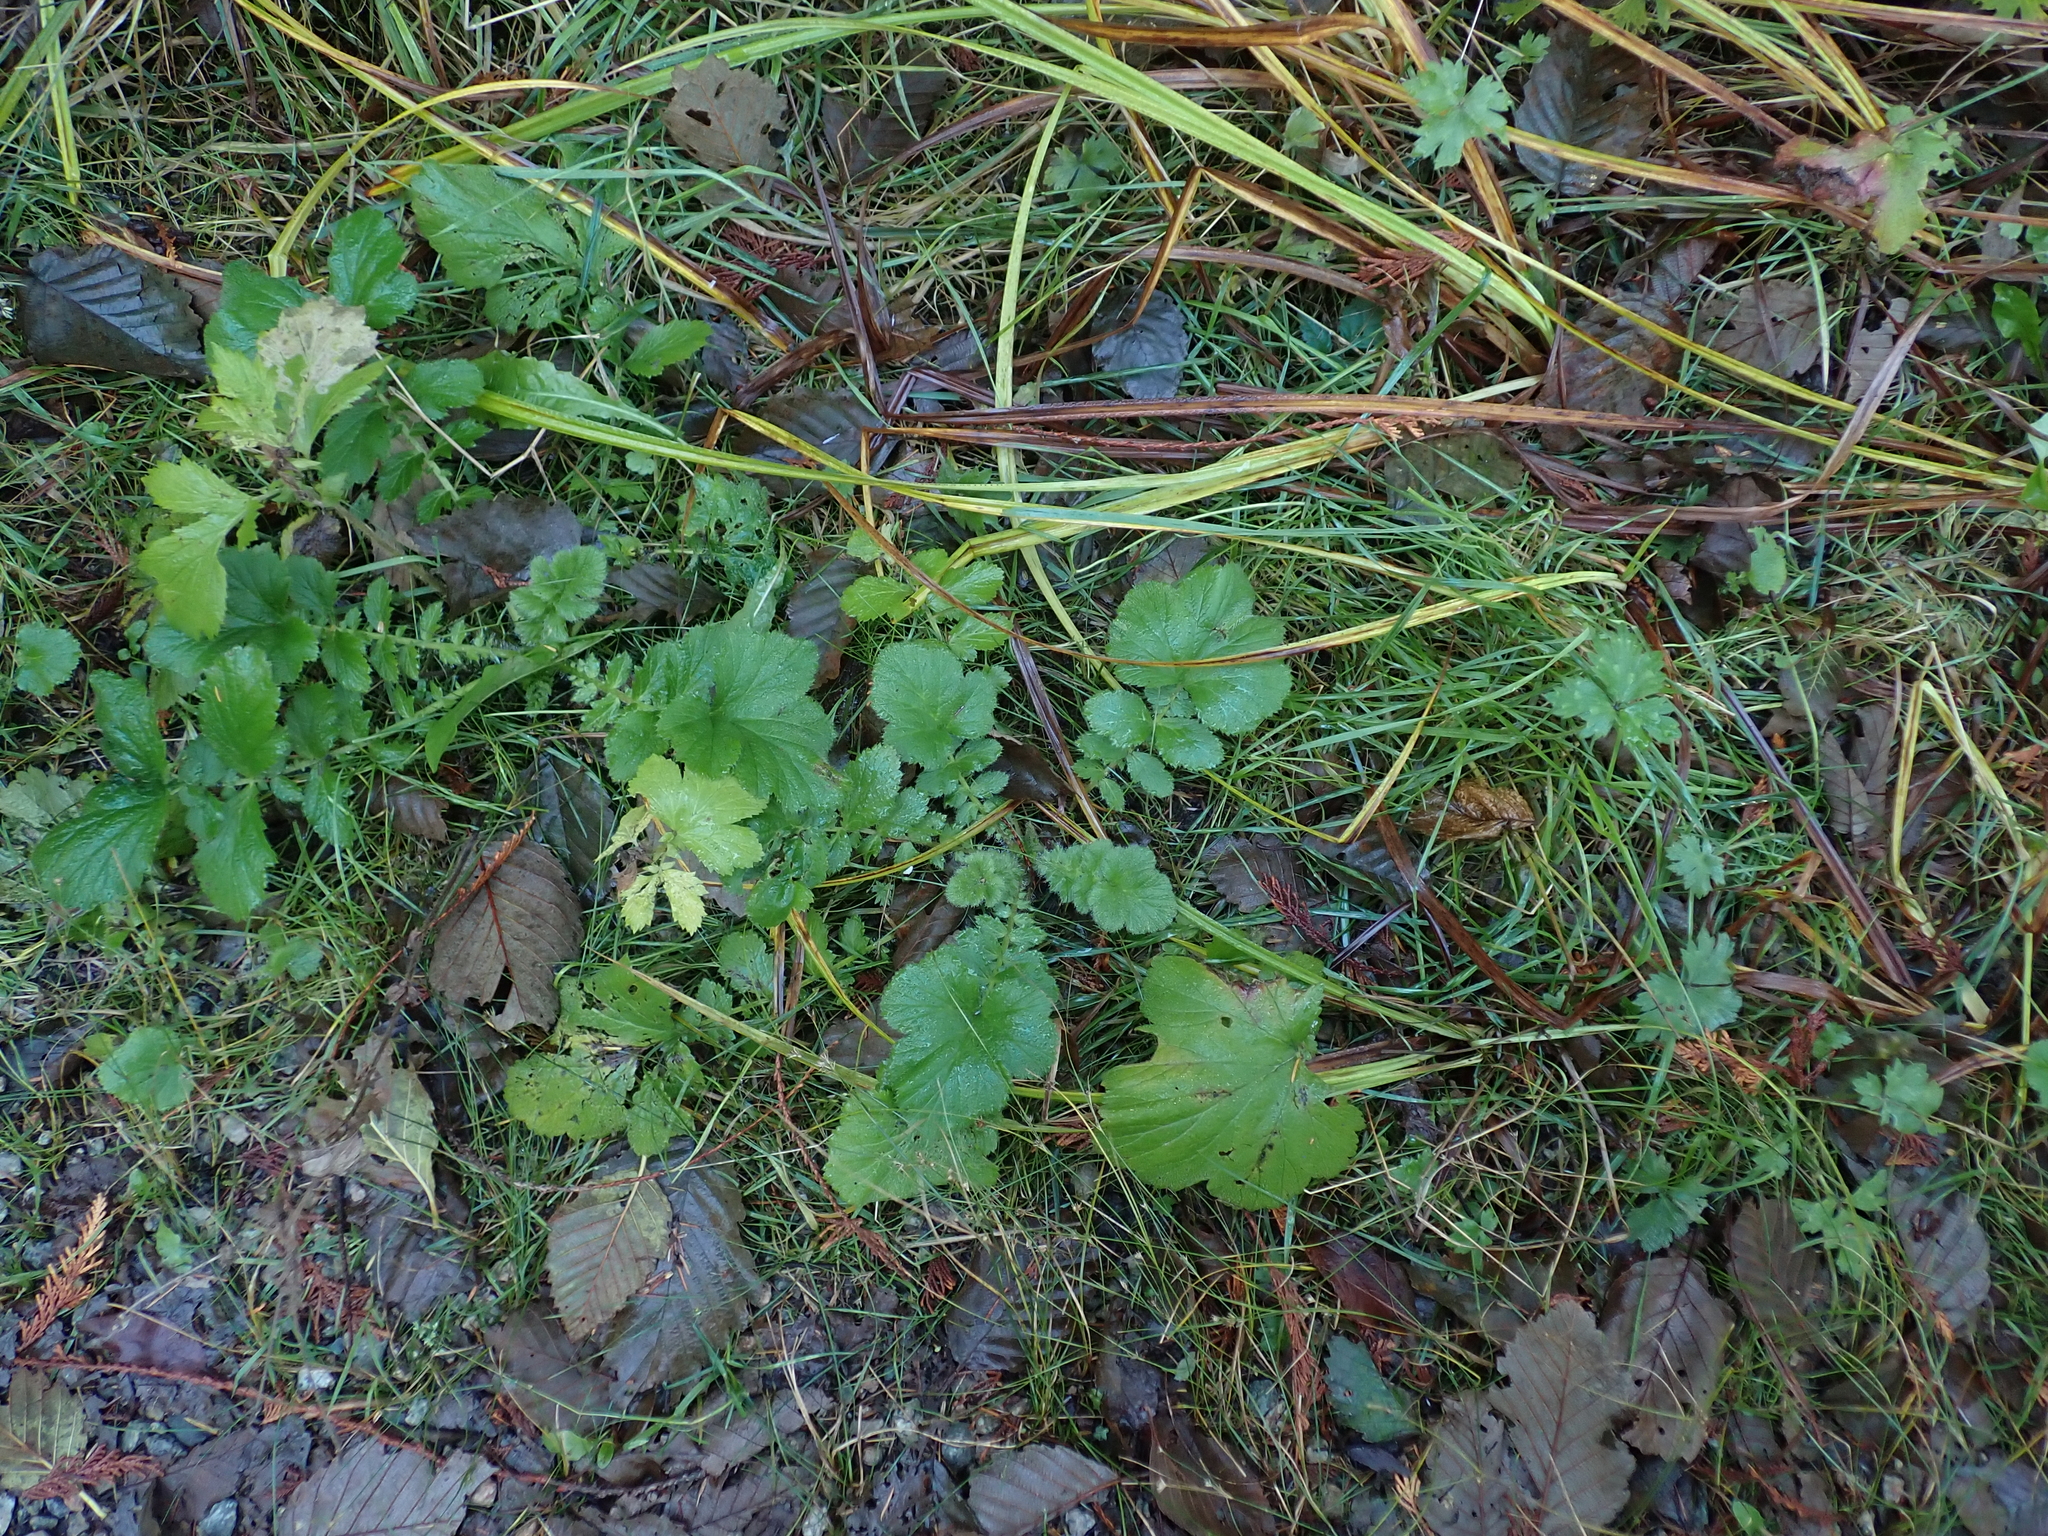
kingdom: Plantae
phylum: Tracheophyta
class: Magnoliopsida
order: Rosales
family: Rosaceae
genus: Geum
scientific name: Geum macrophyllum
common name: Large-leaved avens
